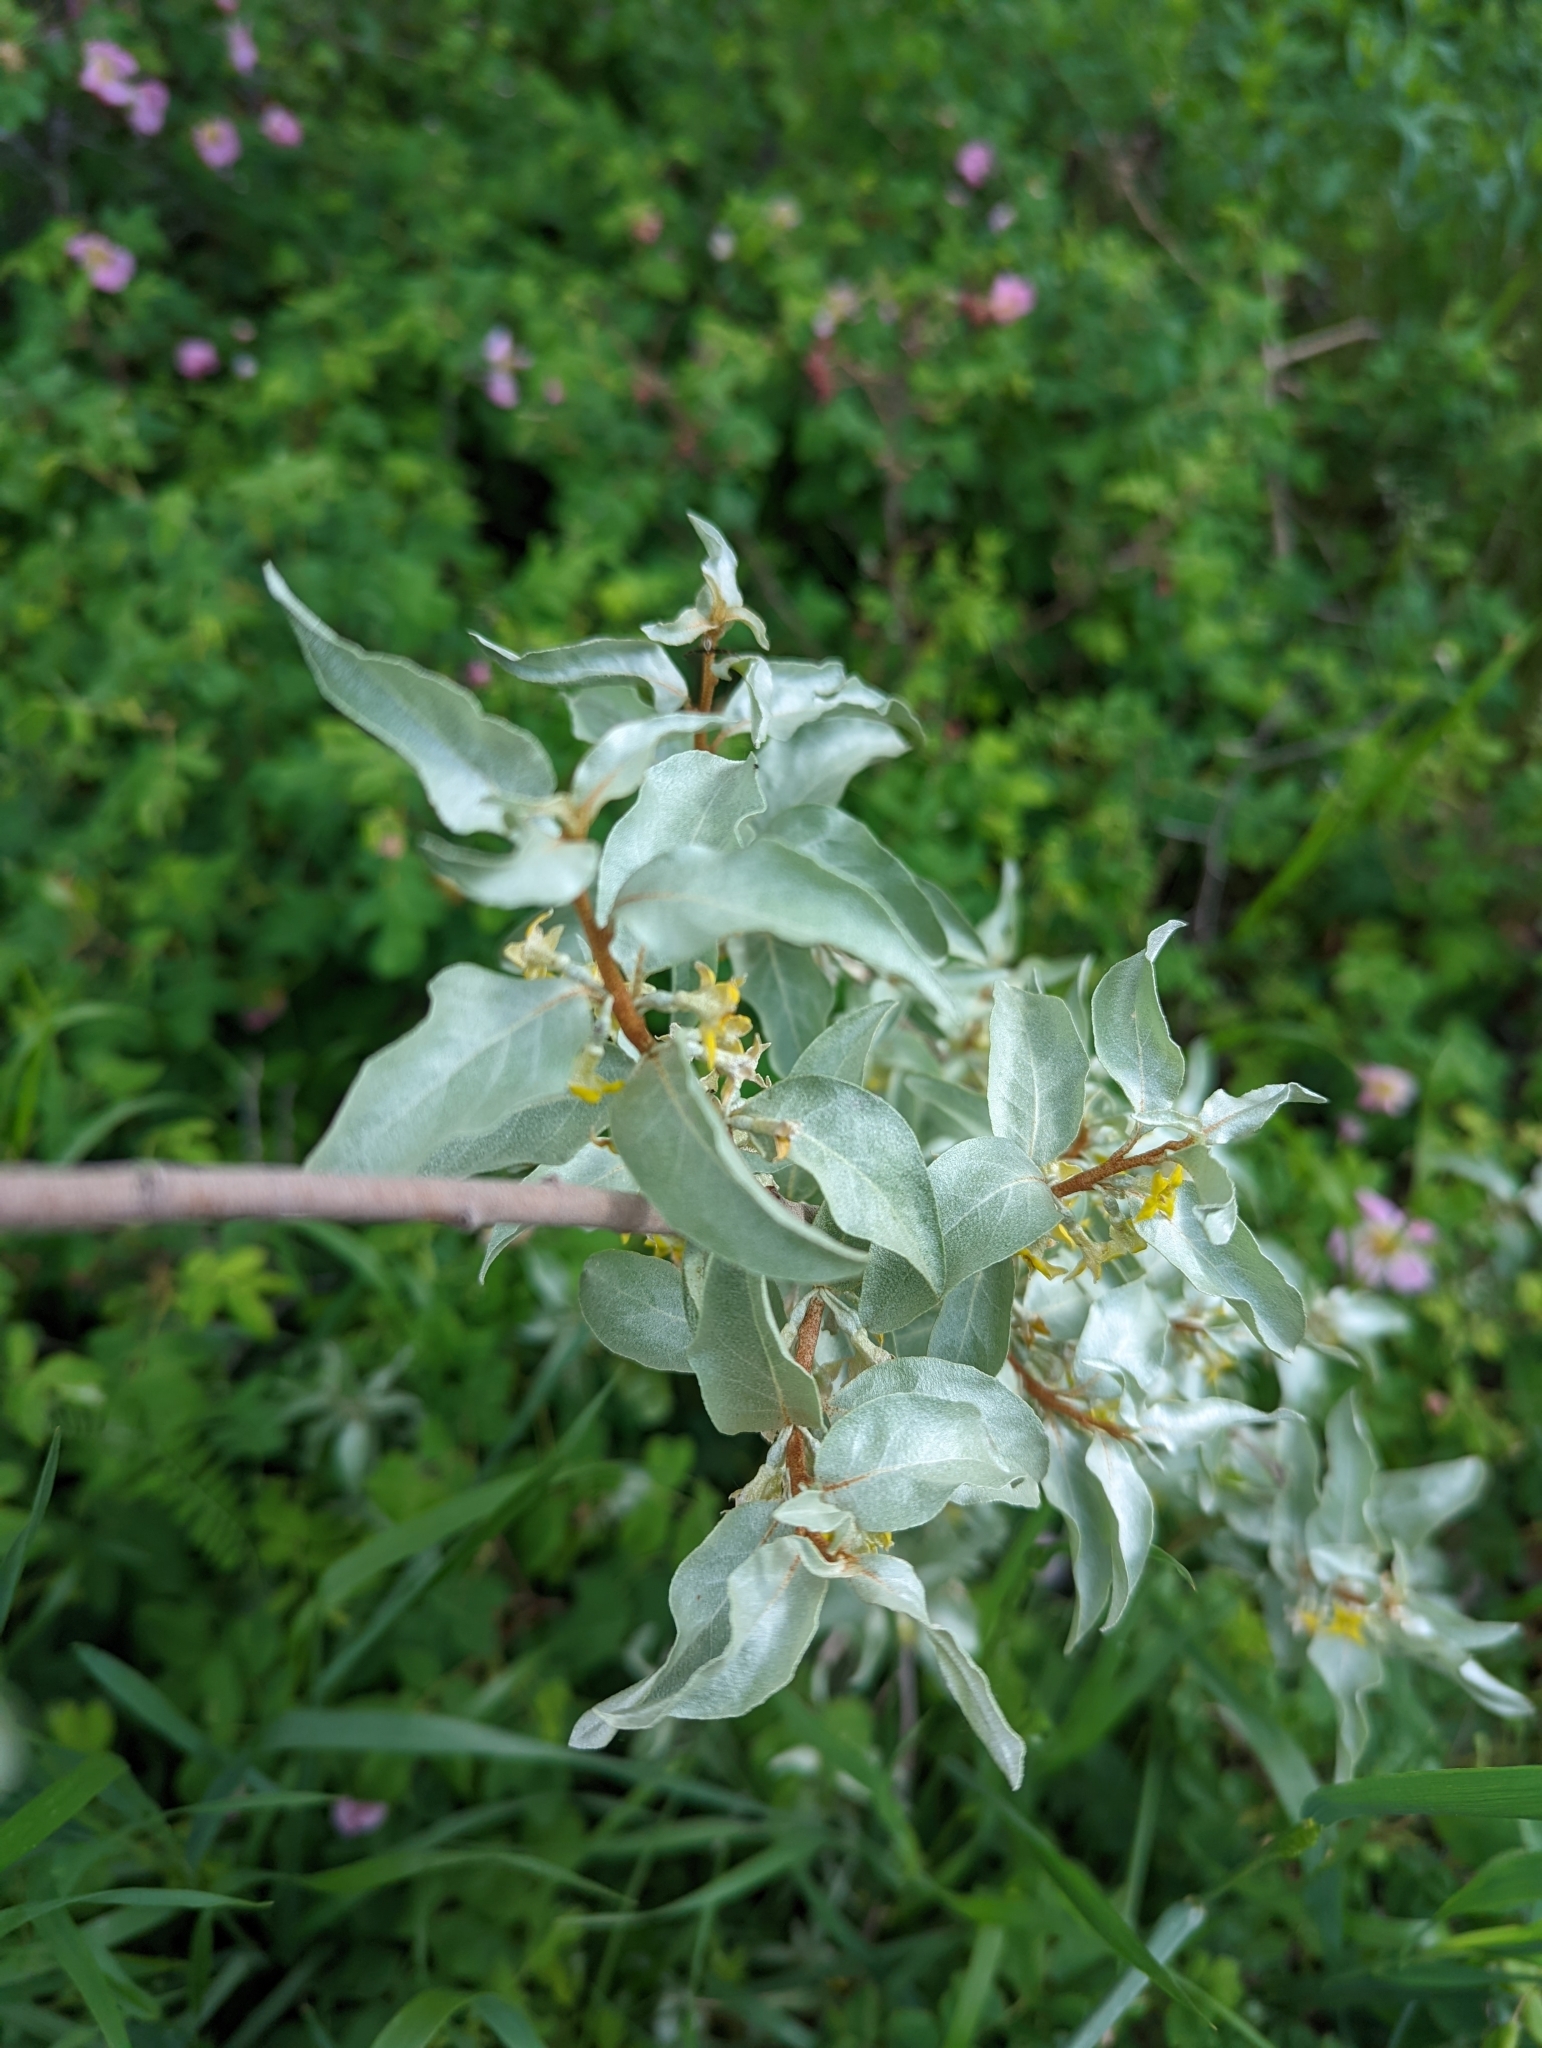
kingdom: Plantae
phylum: Tracheophyta
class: Magnoliopsida
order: Rosales
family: Elaeagnaceae
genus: Elaeagnus
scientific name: Elaeagnus commutata
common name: Silverberry
